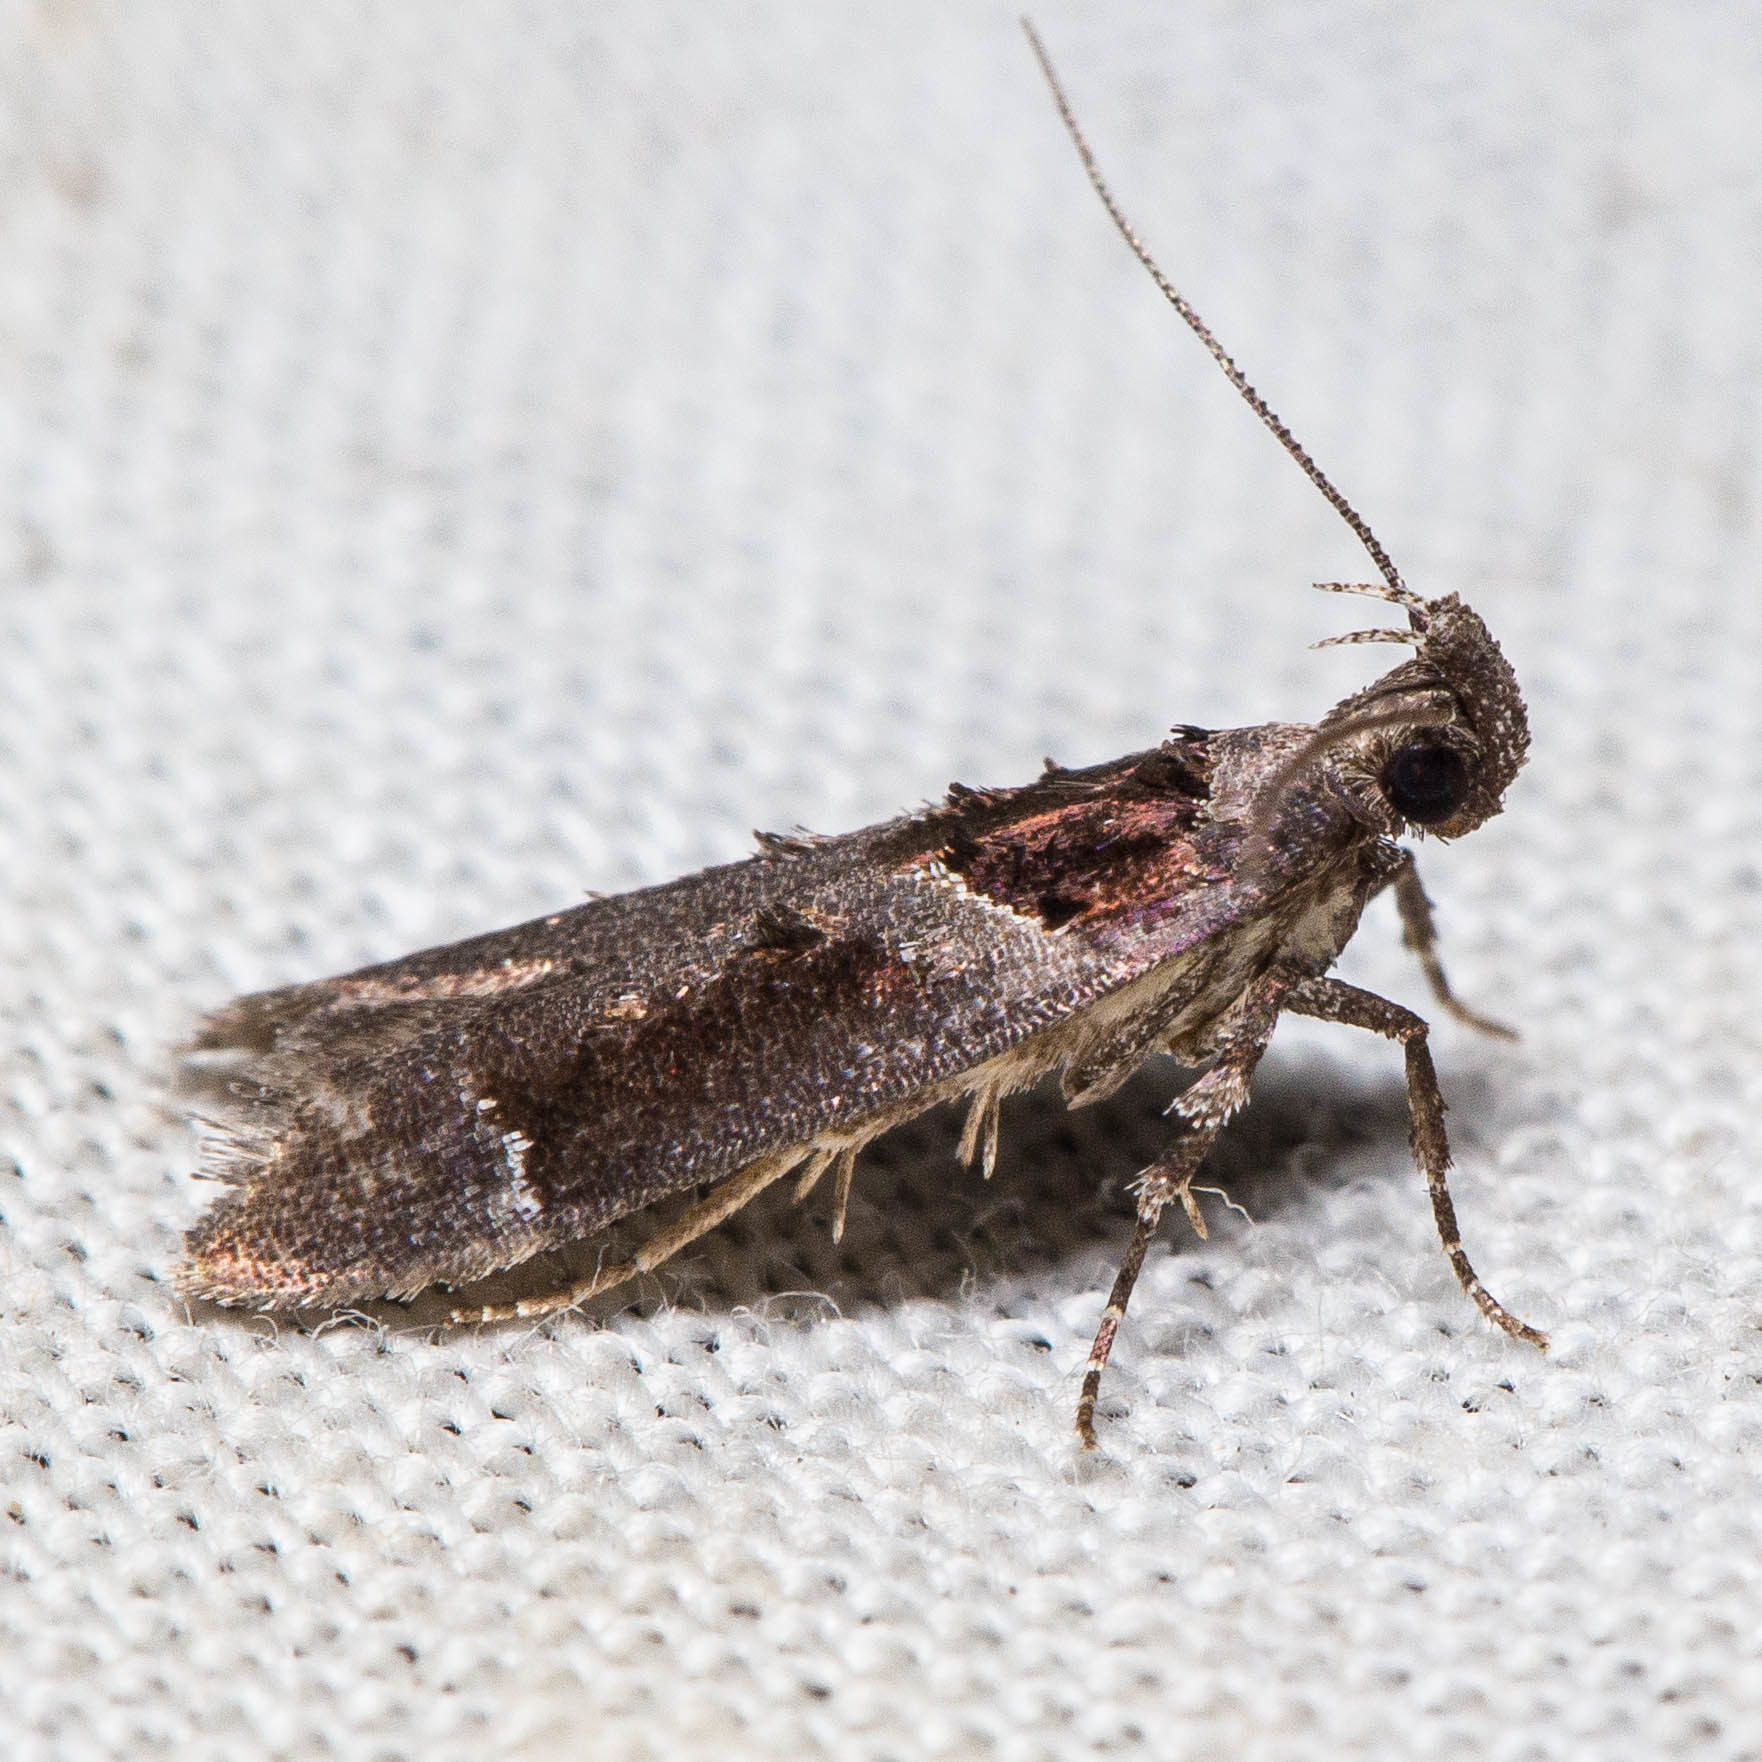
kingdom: Animalia
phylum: Arthropoda
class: Insecta
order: Lepidoptera
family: Gelechiidae
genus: Pseudochelaria
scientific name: Pseudochelaria scabrella
